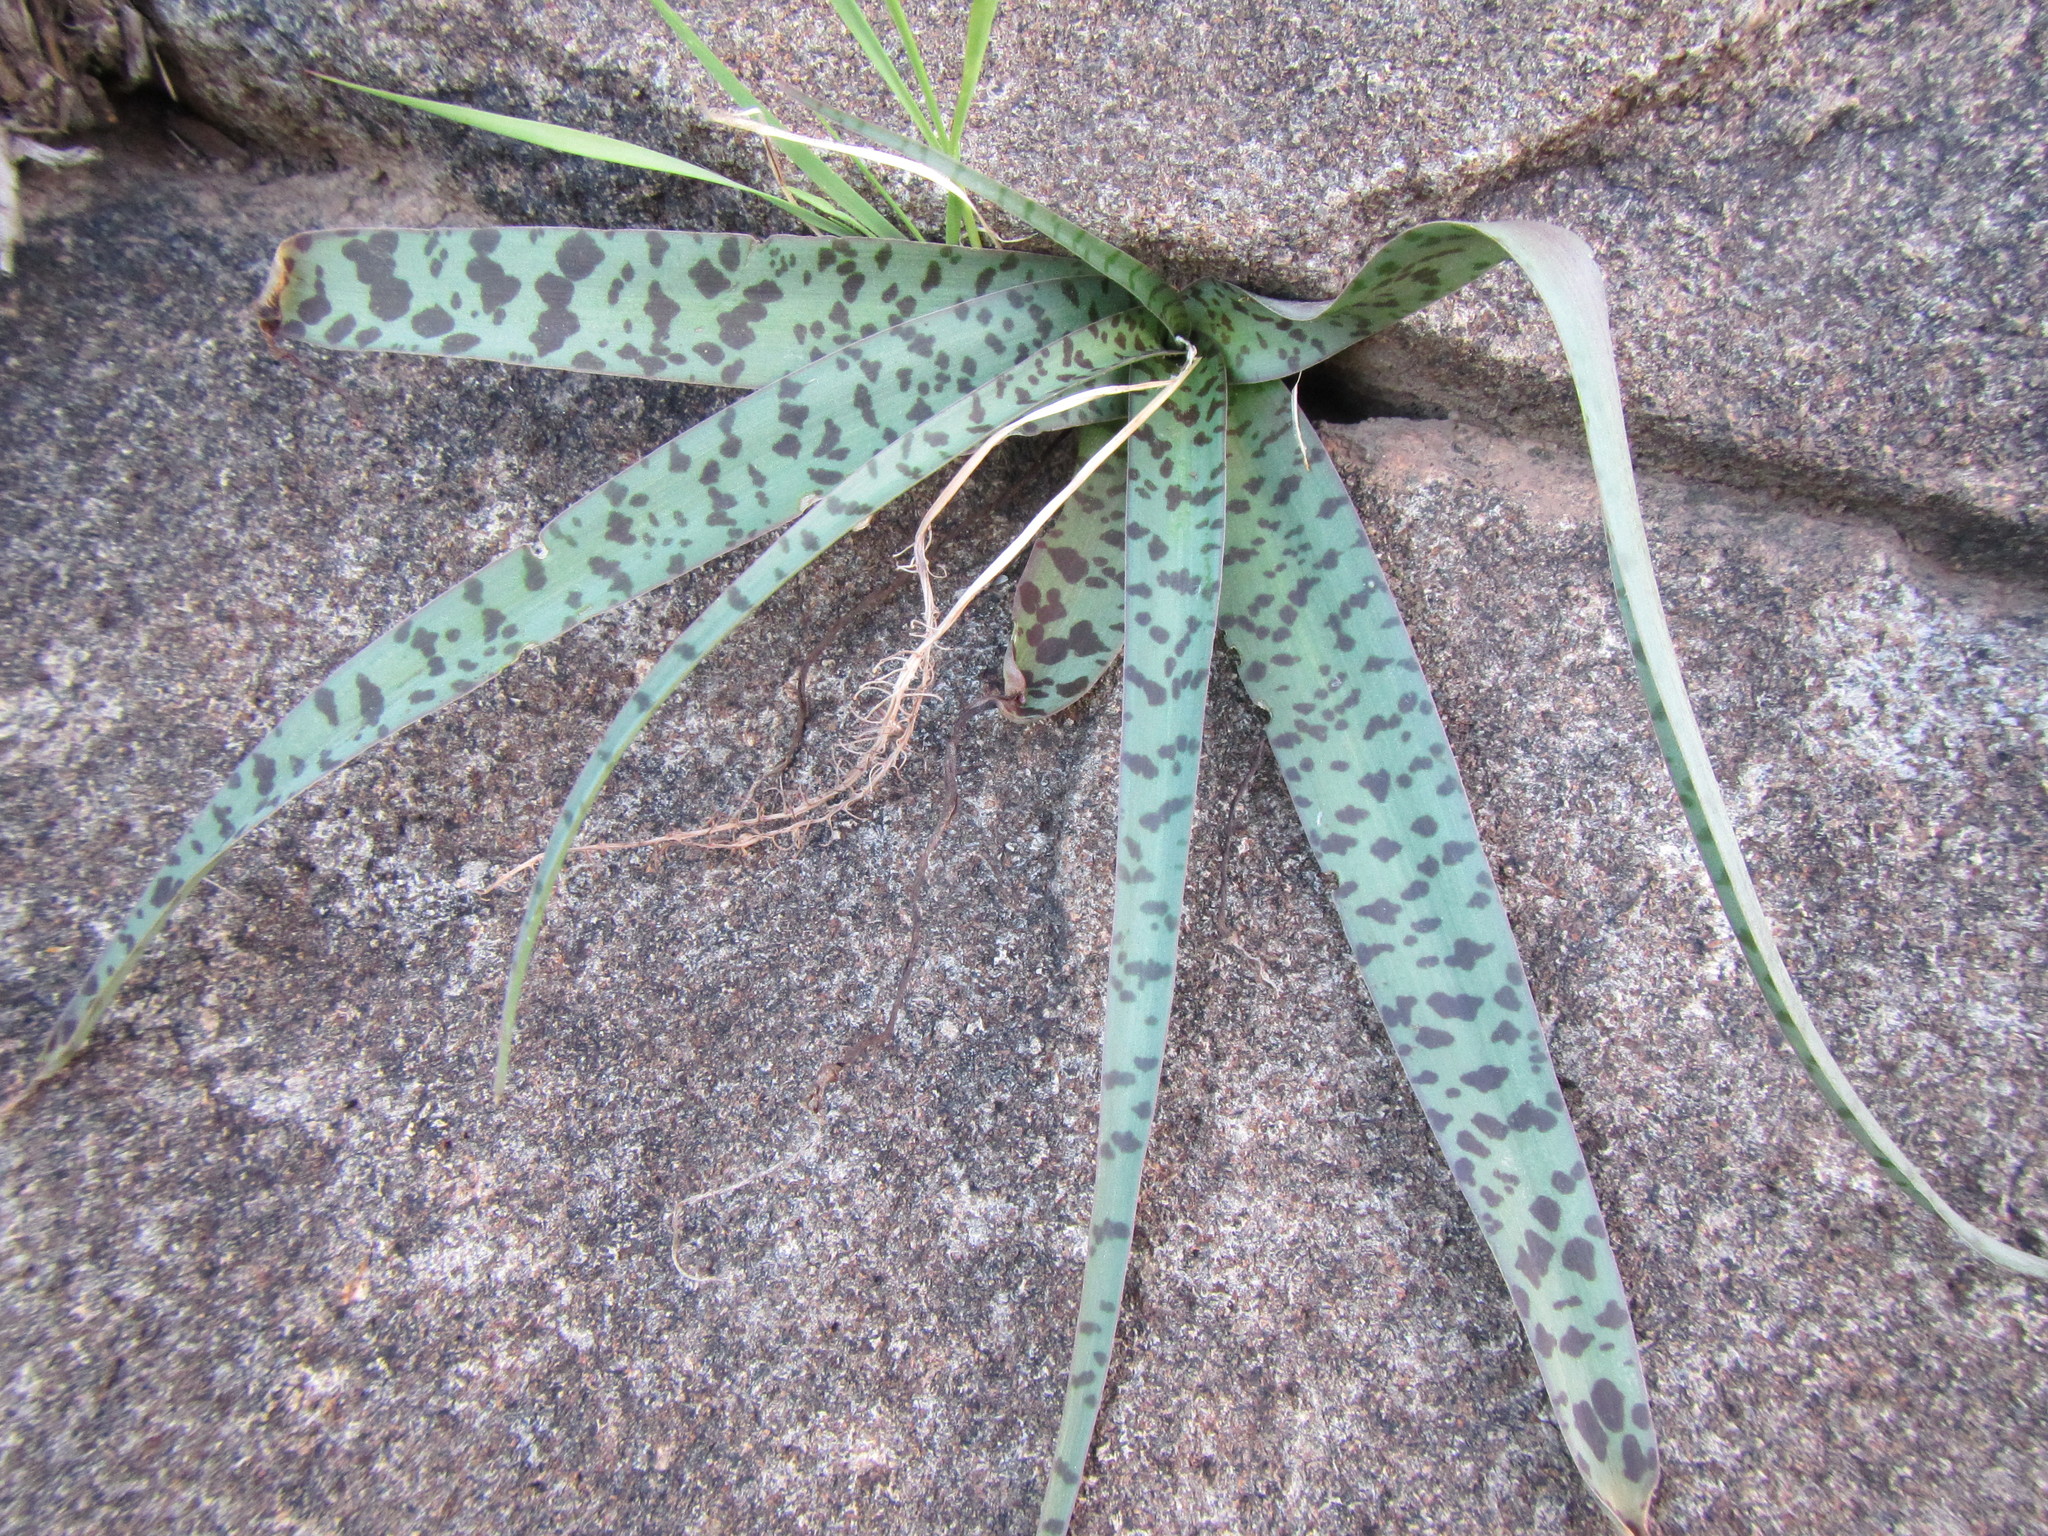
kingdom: Plantae
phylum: Tracheophyta
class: Liliopsida
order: Asparagales
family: Asparagaceae
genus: Ledebouria
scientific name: Ledebouria apertiflora
